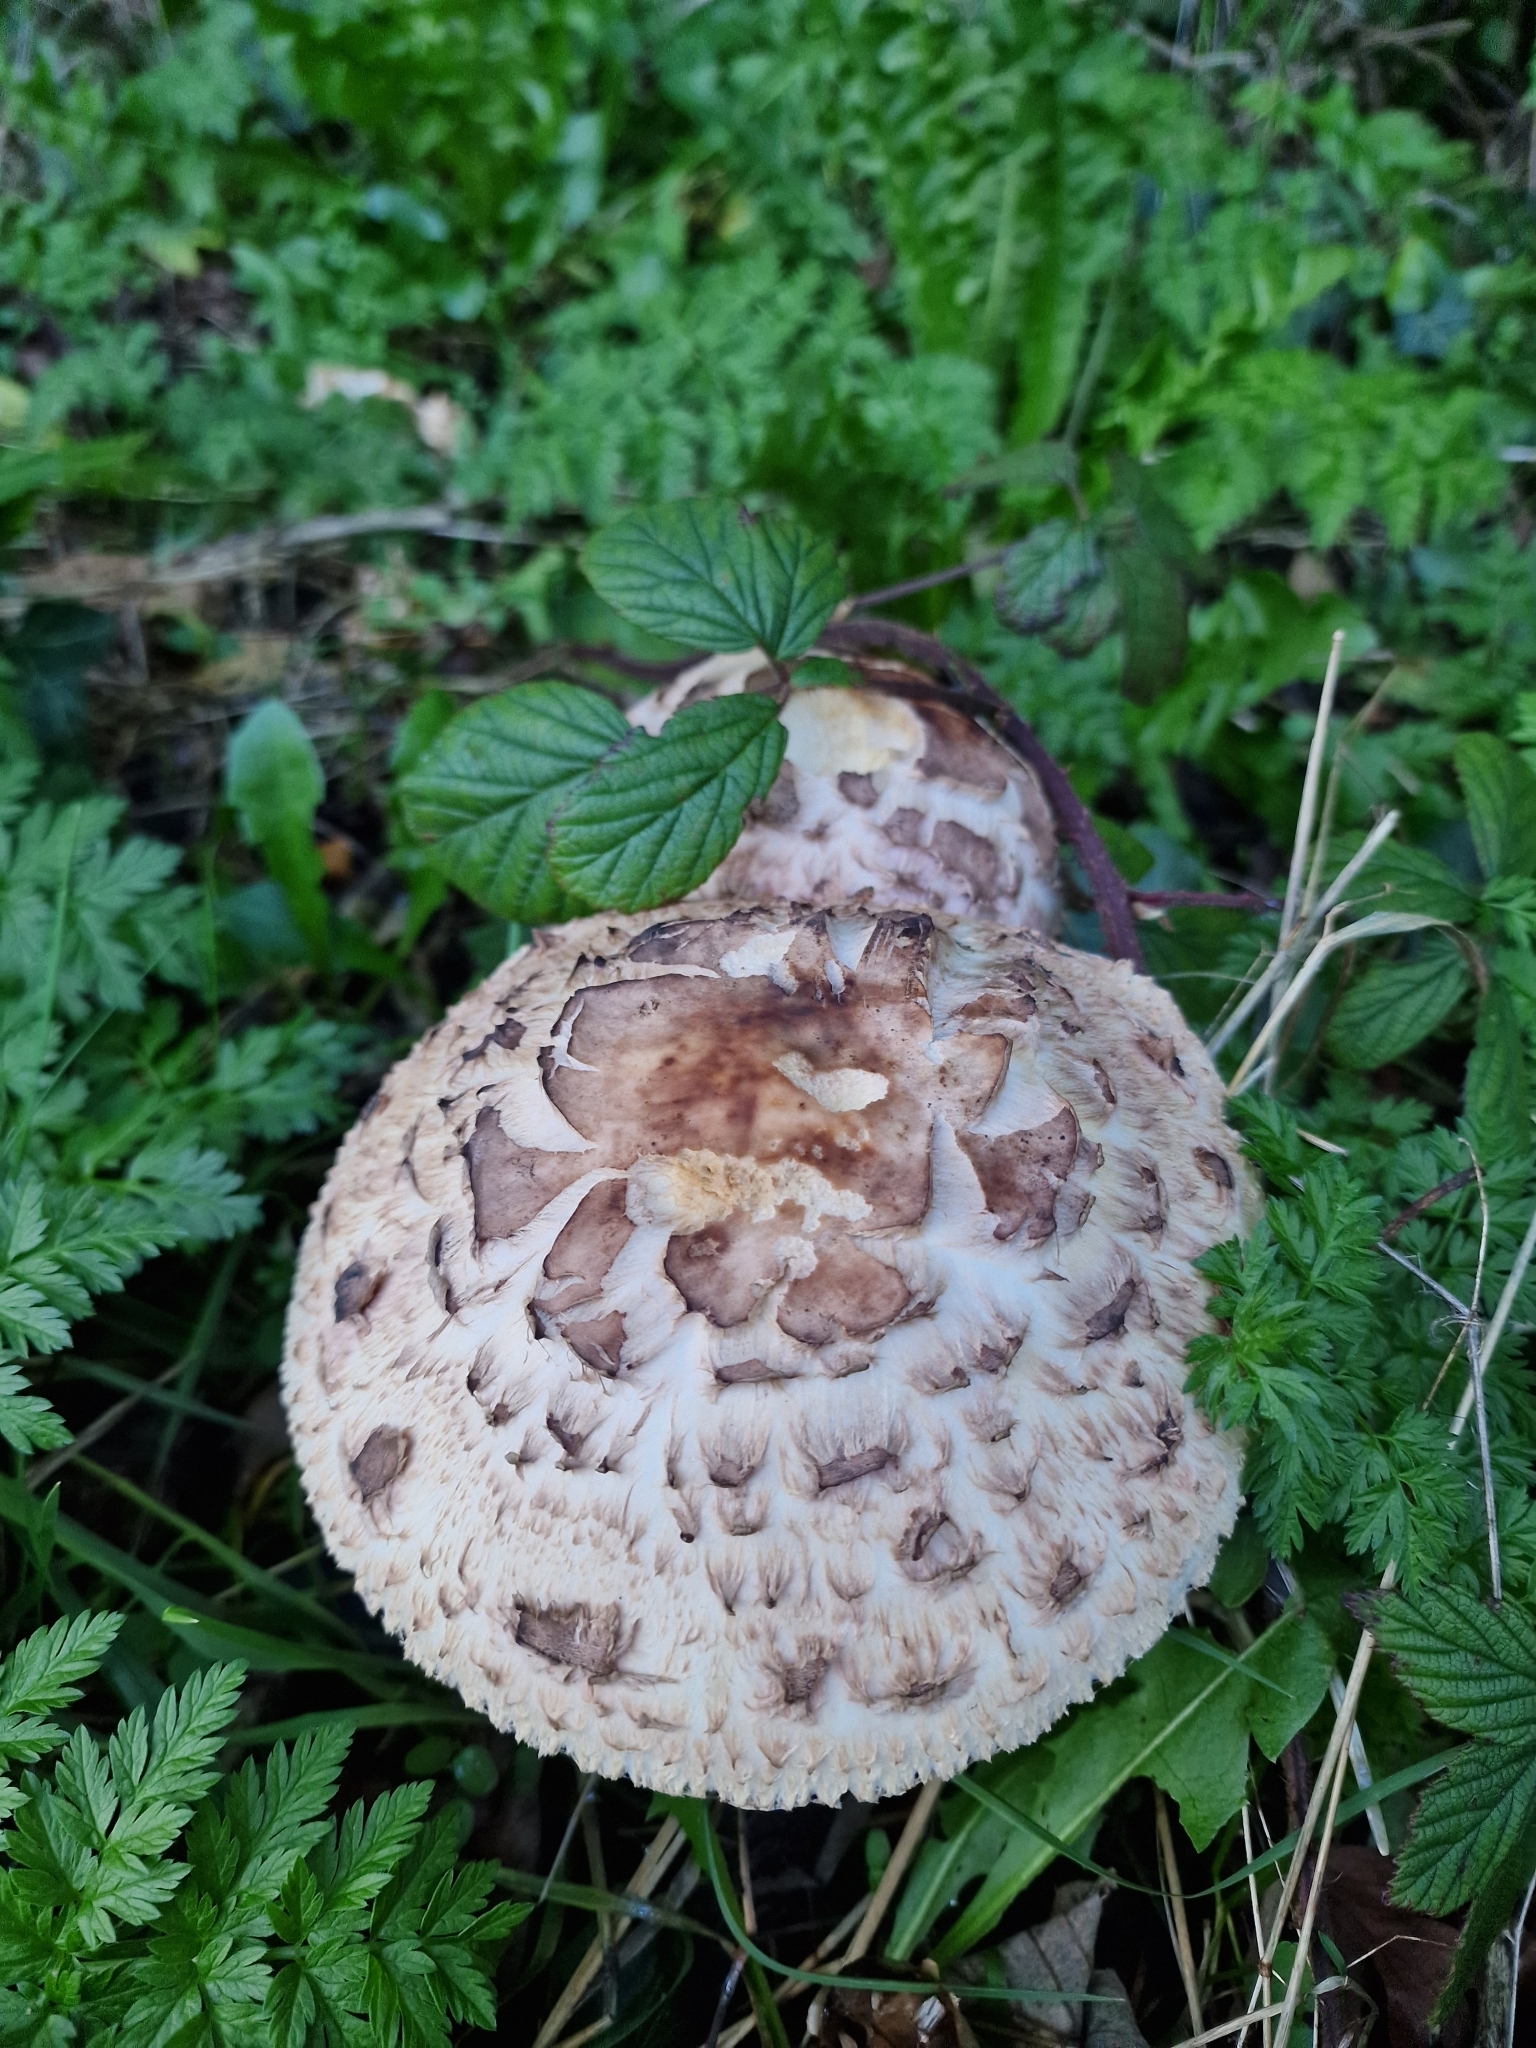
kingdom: Fungi
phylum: Basidiomycota
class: Agaricomycetes
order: Agaricales
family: Agaricaceae
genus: Chlorophyllum
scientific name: Chlorophyllum rhacodes
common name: Shaggy parasol
